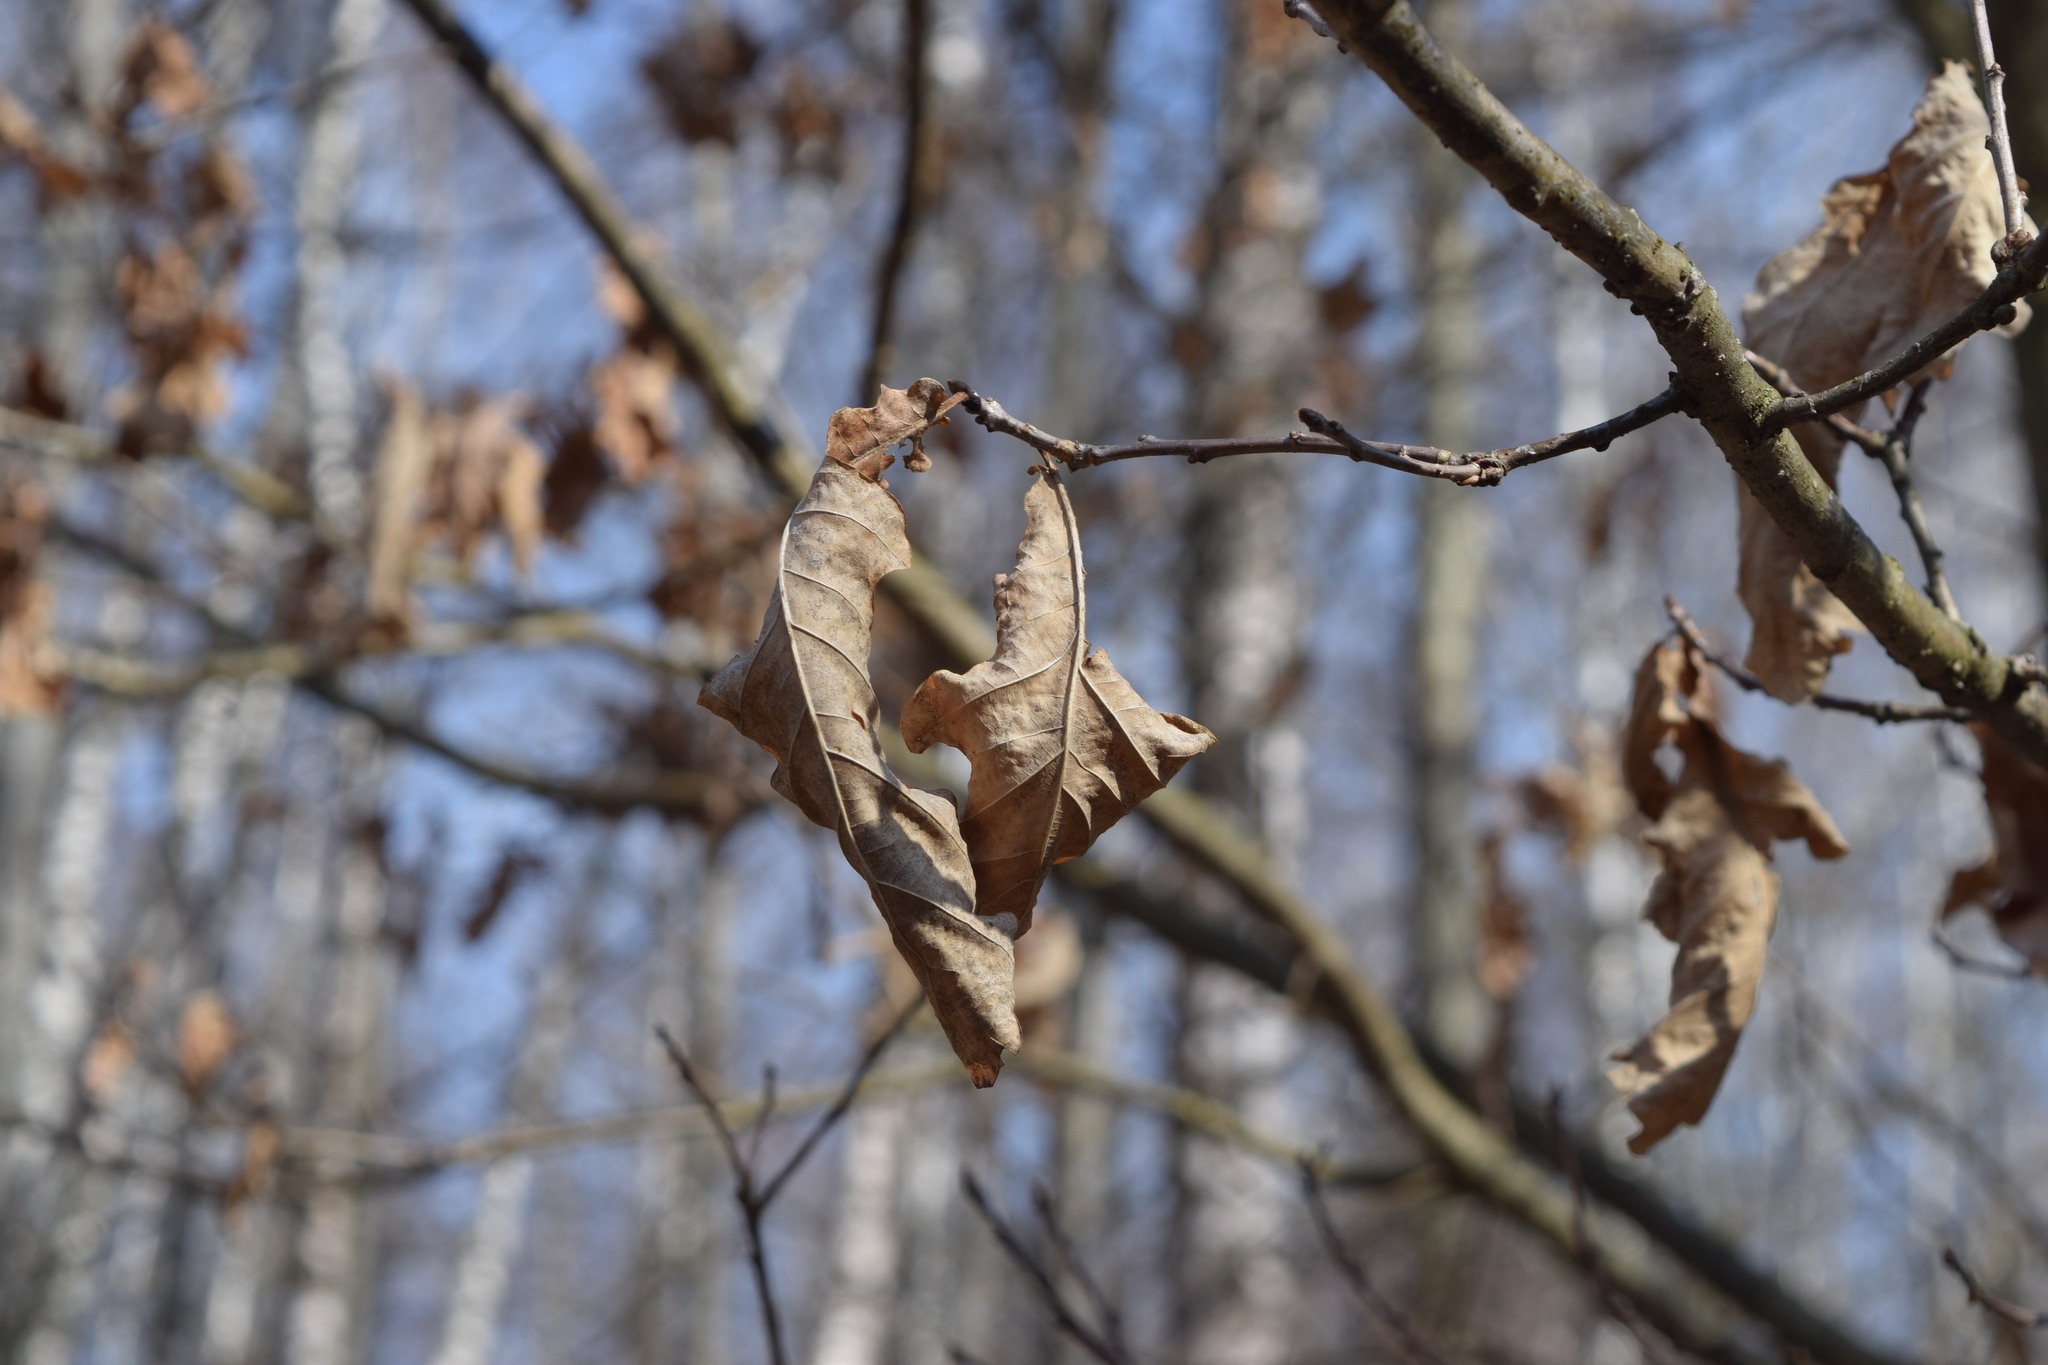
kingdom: Plantae
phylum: Tracheophyta
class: Magnoliopsida
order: Fagales
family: Fagaceae
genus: Quercus
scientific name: Quercus robur
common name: Pedunculate oak
